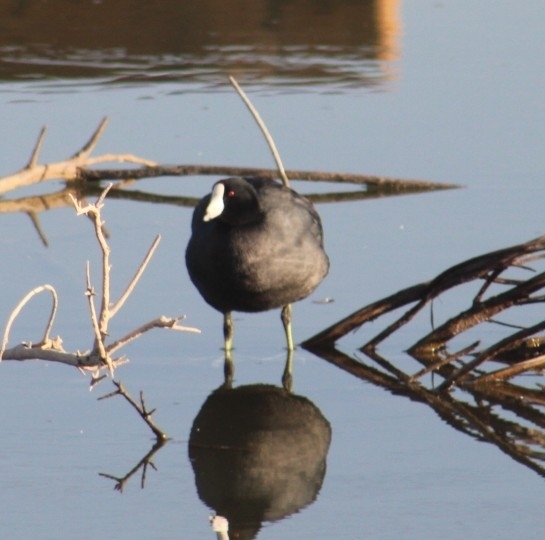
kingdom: Animalia
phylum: Chordata
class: Aves
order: Gruiformes
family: Rallidae
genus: Fulica
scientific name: Fulica americana
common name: American coot
